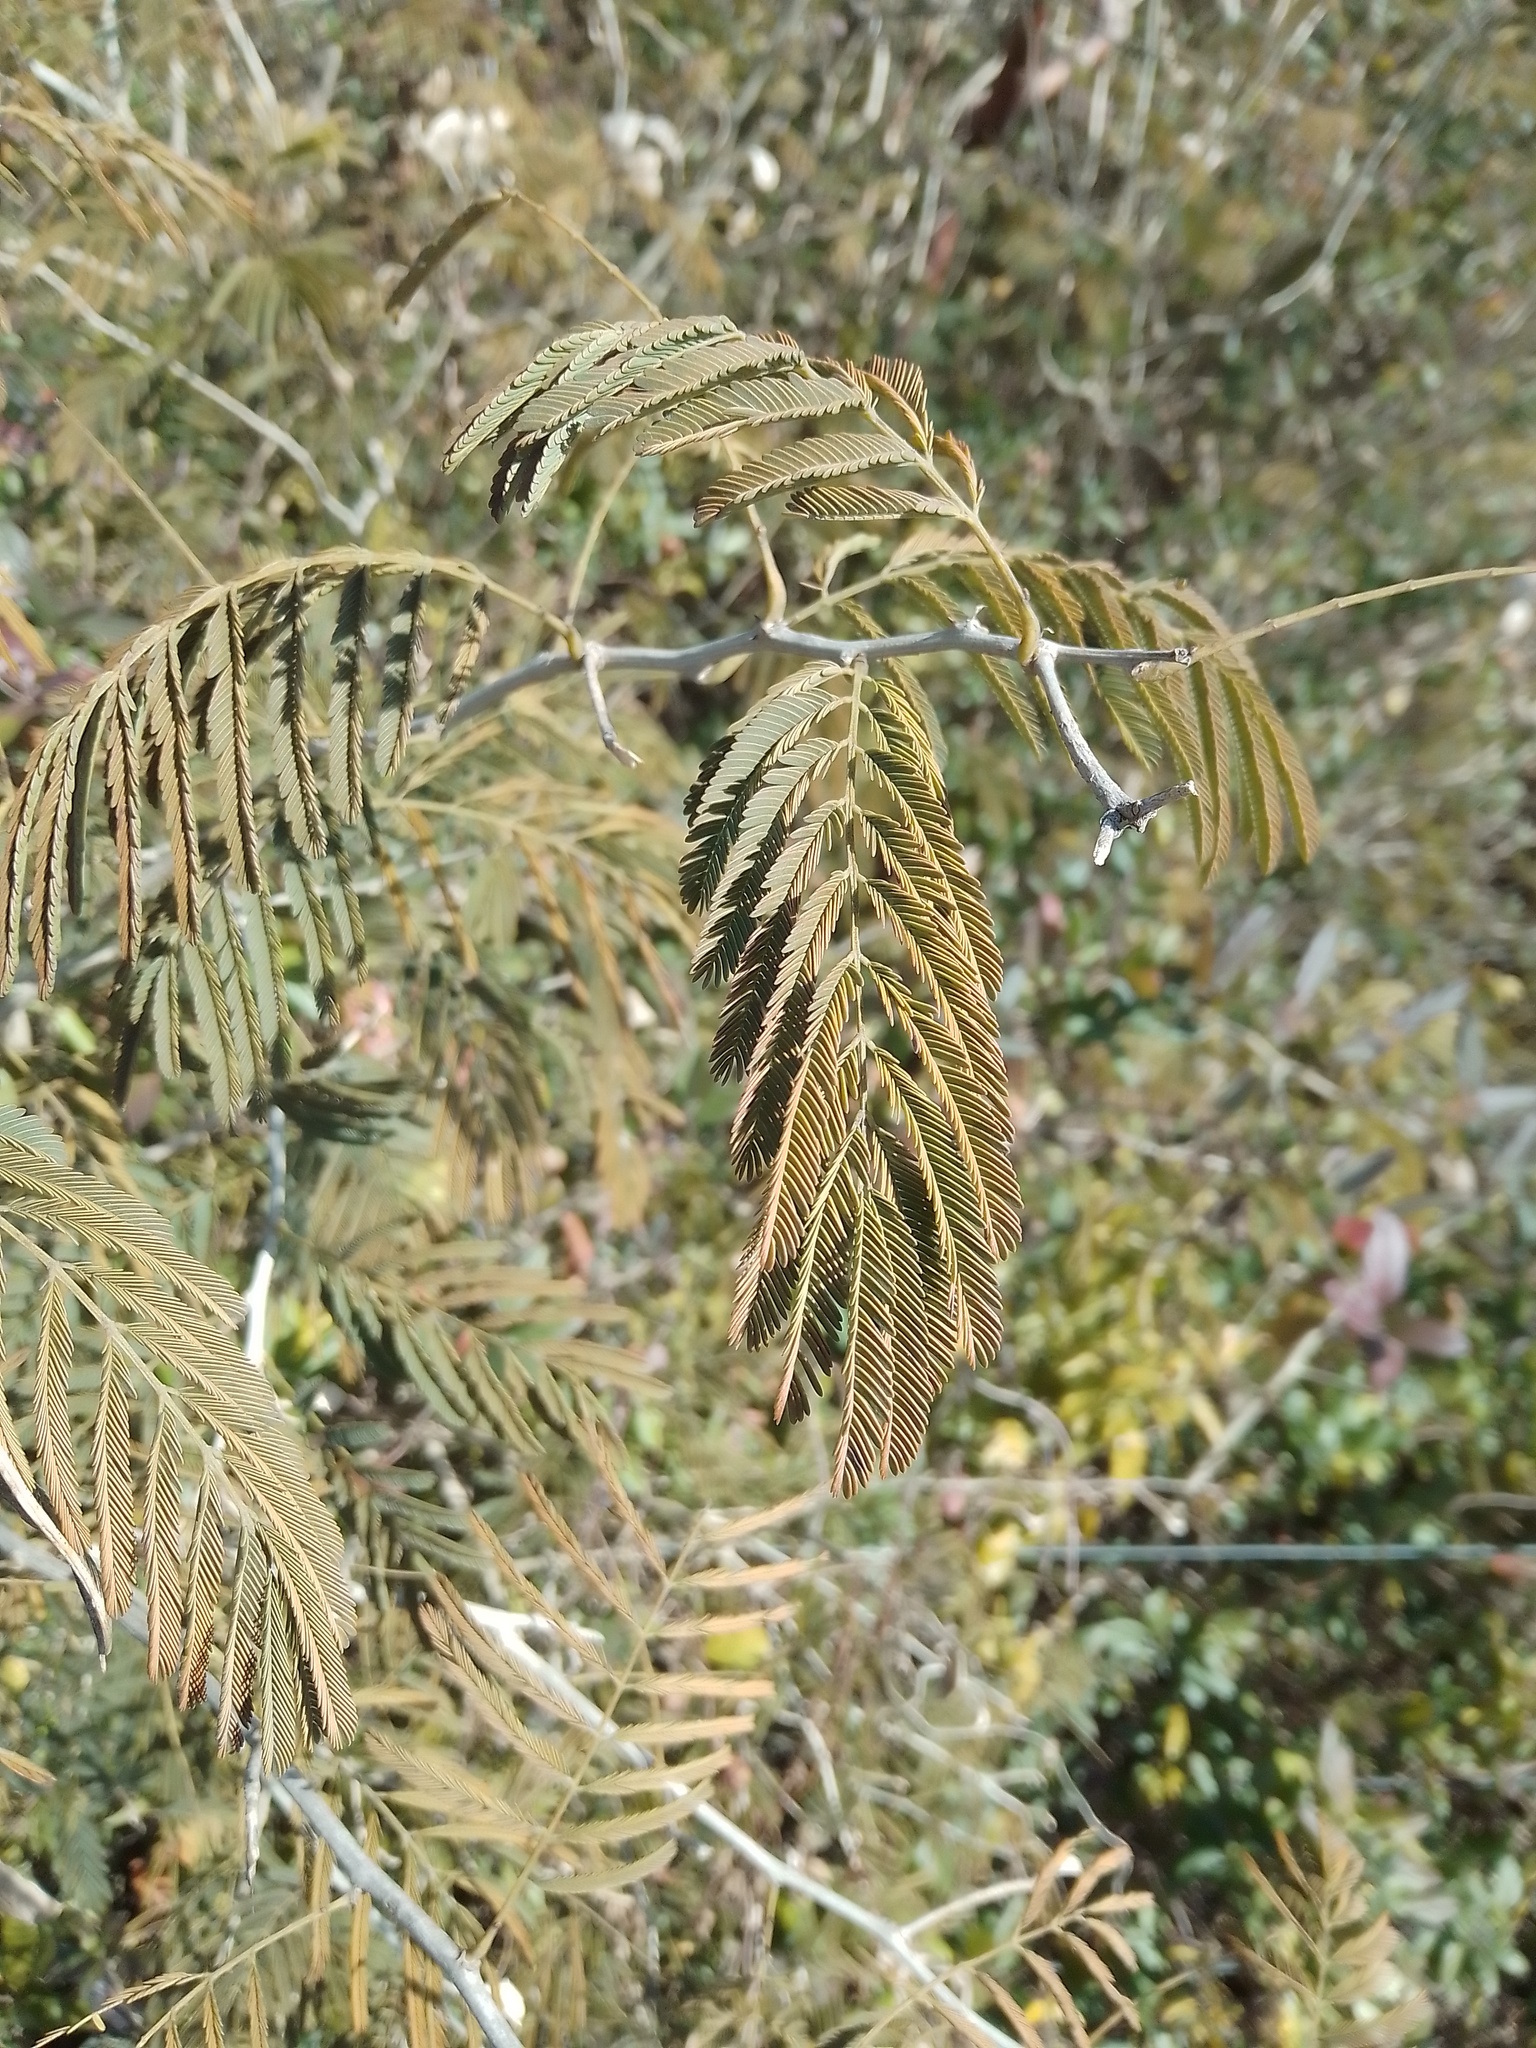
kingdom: Plantae
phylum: Tracheophyta
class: Magnoliopsida
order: Fabales
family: Fabaceae
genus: Senegalia
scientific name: Senegalia bonariensis
